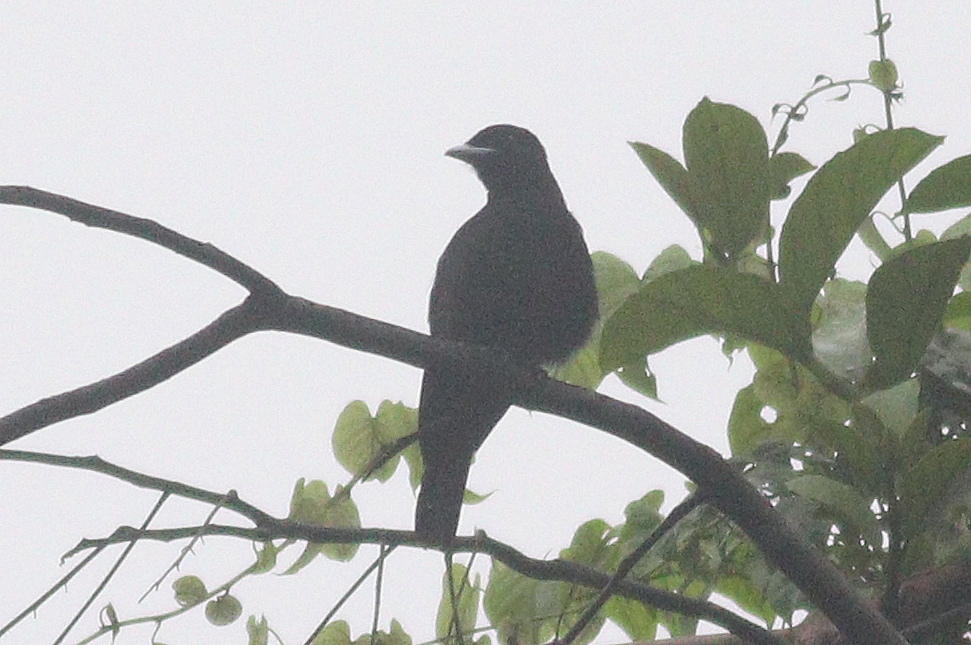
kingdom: Animalia
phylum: Chordata
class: Aves
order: Passeriformes
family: Cotingidae
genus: Querula
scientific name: Querula purpurata
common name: Purple-throated fruitcrow
